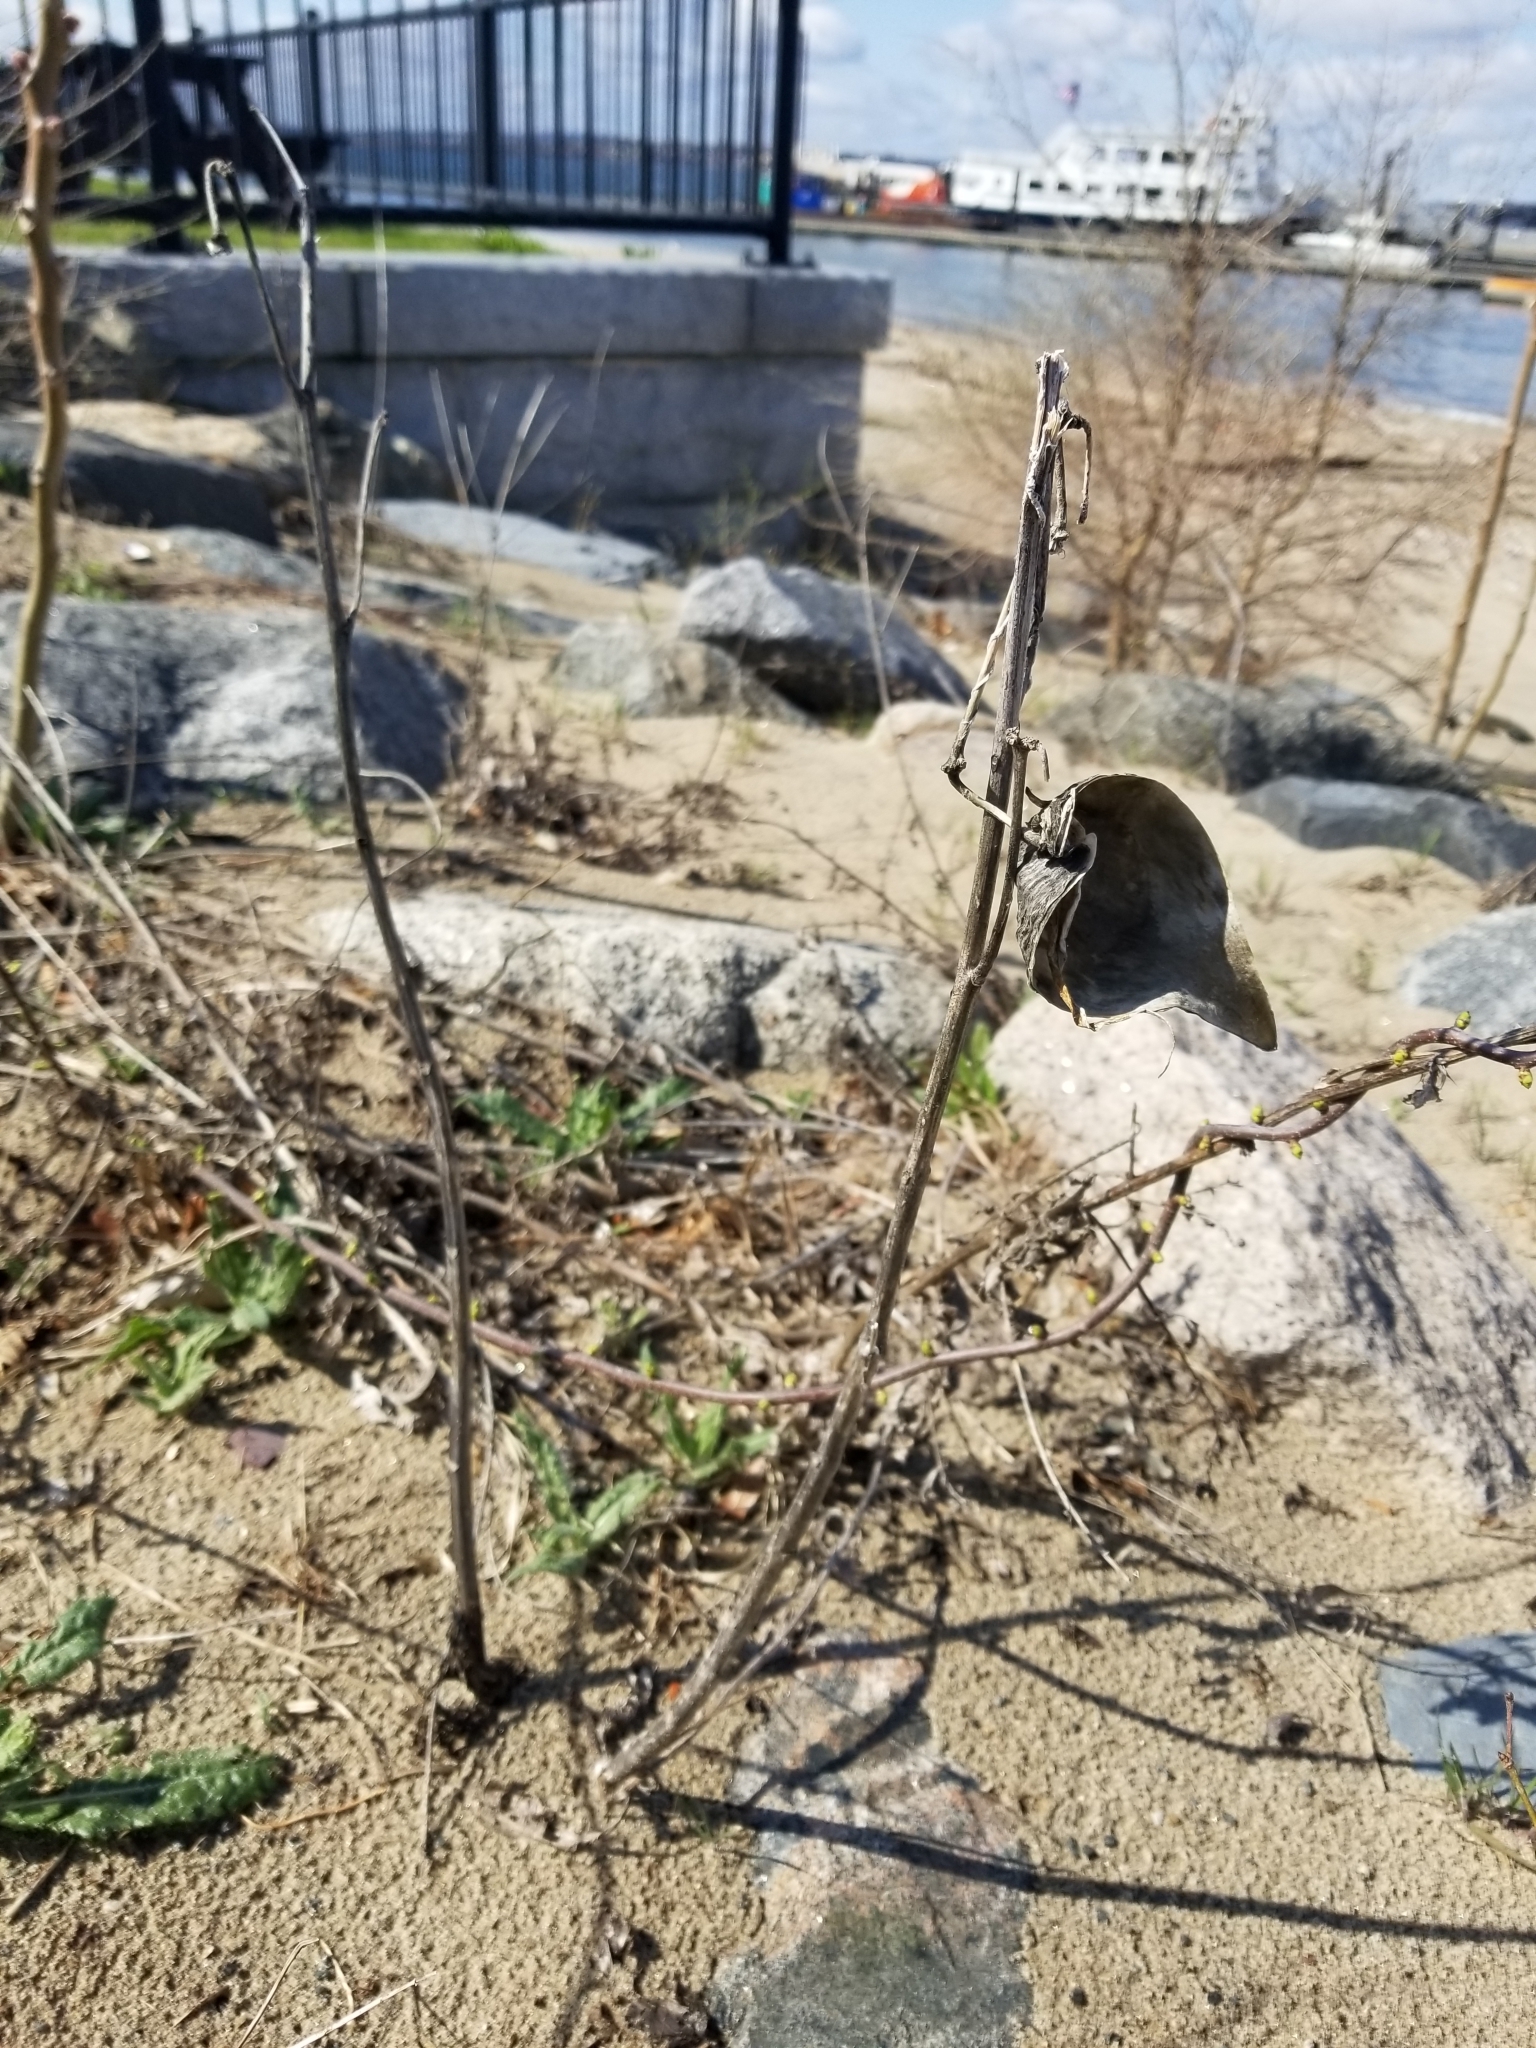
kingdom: Plantae
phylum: Tracheophyta
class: Magnoliopsida
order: Gentianales
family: Apocynaceae
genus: Asclepias
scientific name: Asclepias syriaca
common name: Common milkweed
